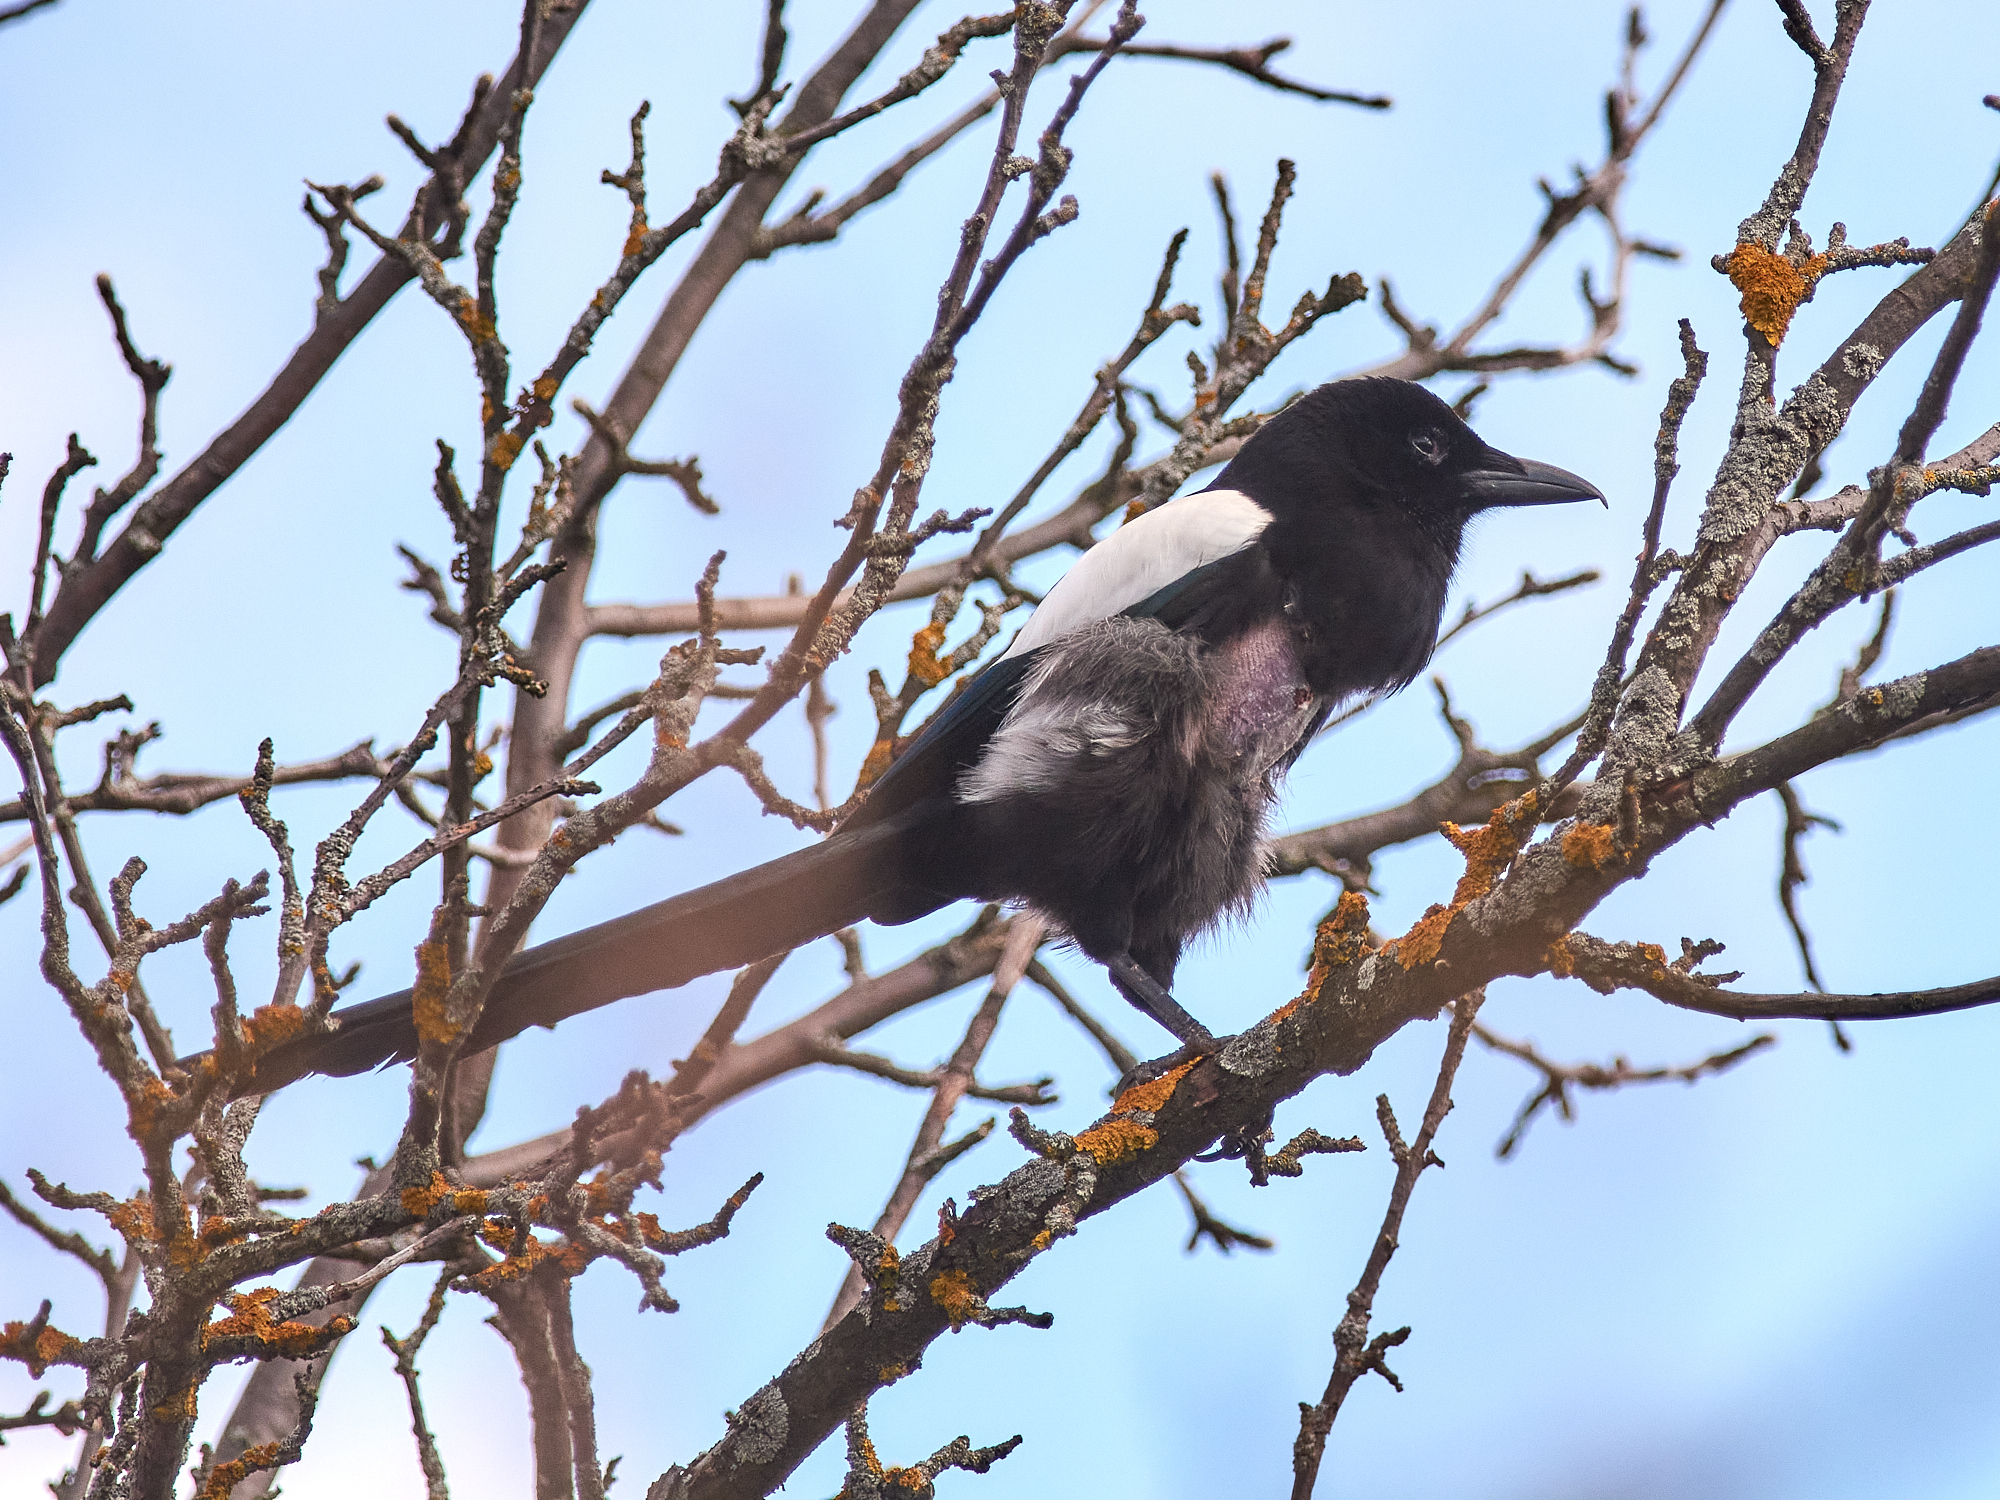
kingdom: Animalia
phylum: Chordata
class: Aves
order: Passeriformes
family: Corvidae
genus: Pica
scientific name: Pica pica
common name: Eurasian magpie
